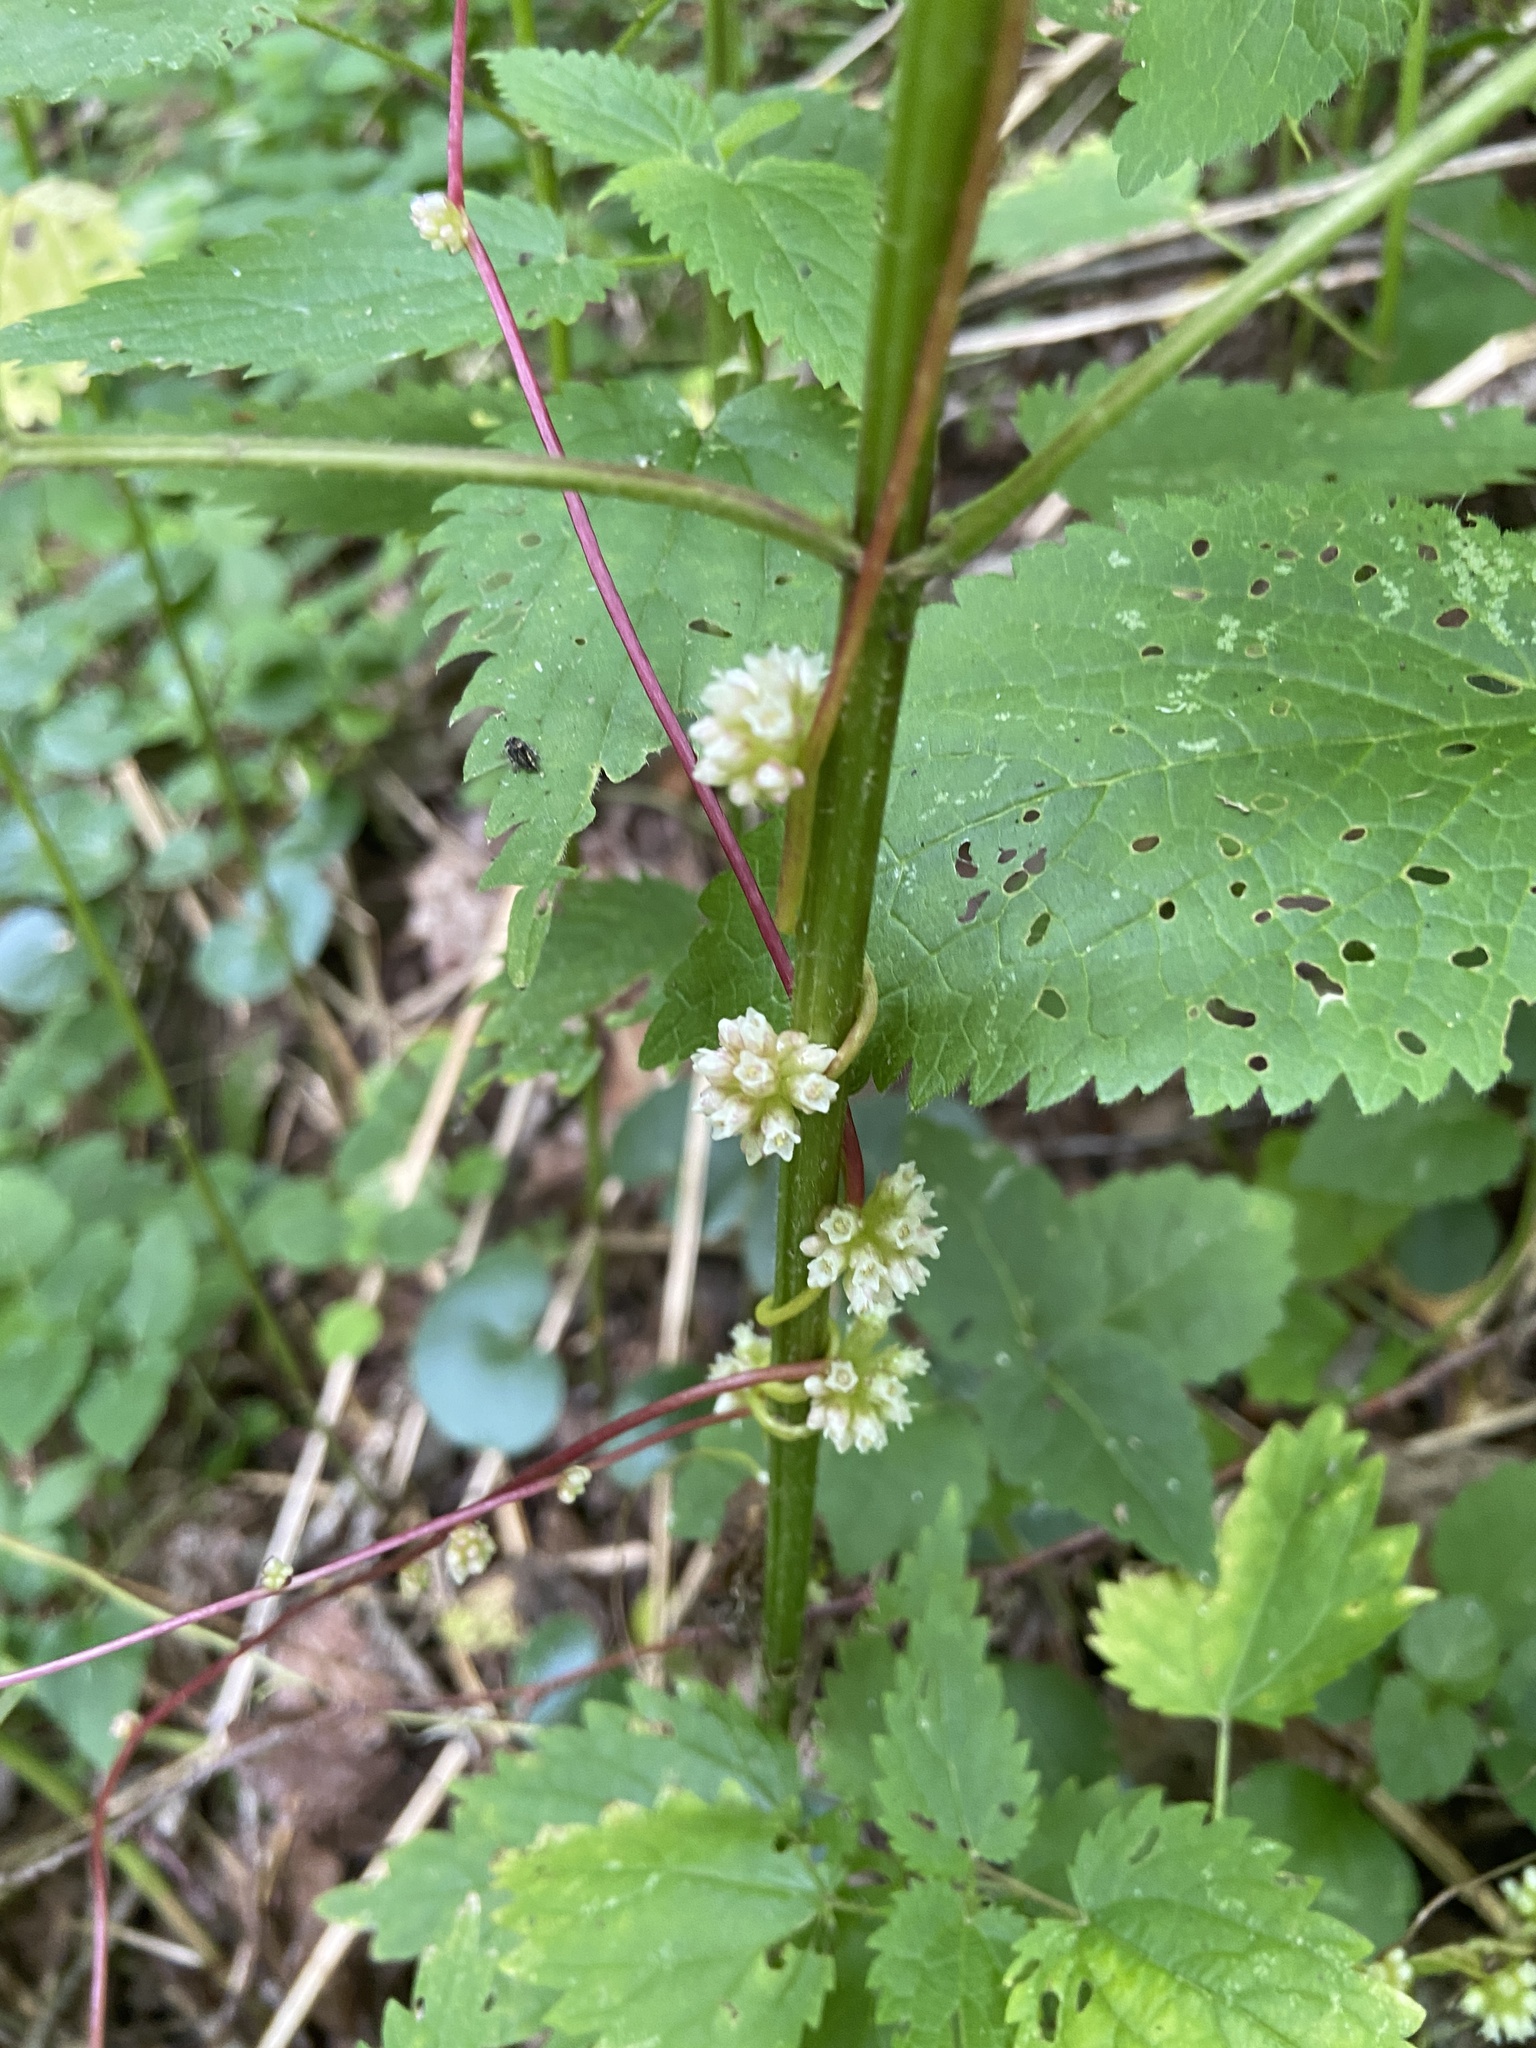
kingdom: Plantae
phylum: Tracheophyta
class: Magnoliopsida
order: Solanales
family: Convolvulaceae
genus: Cuscuta
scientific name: Cuscuta europaea
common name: Greater dodder
